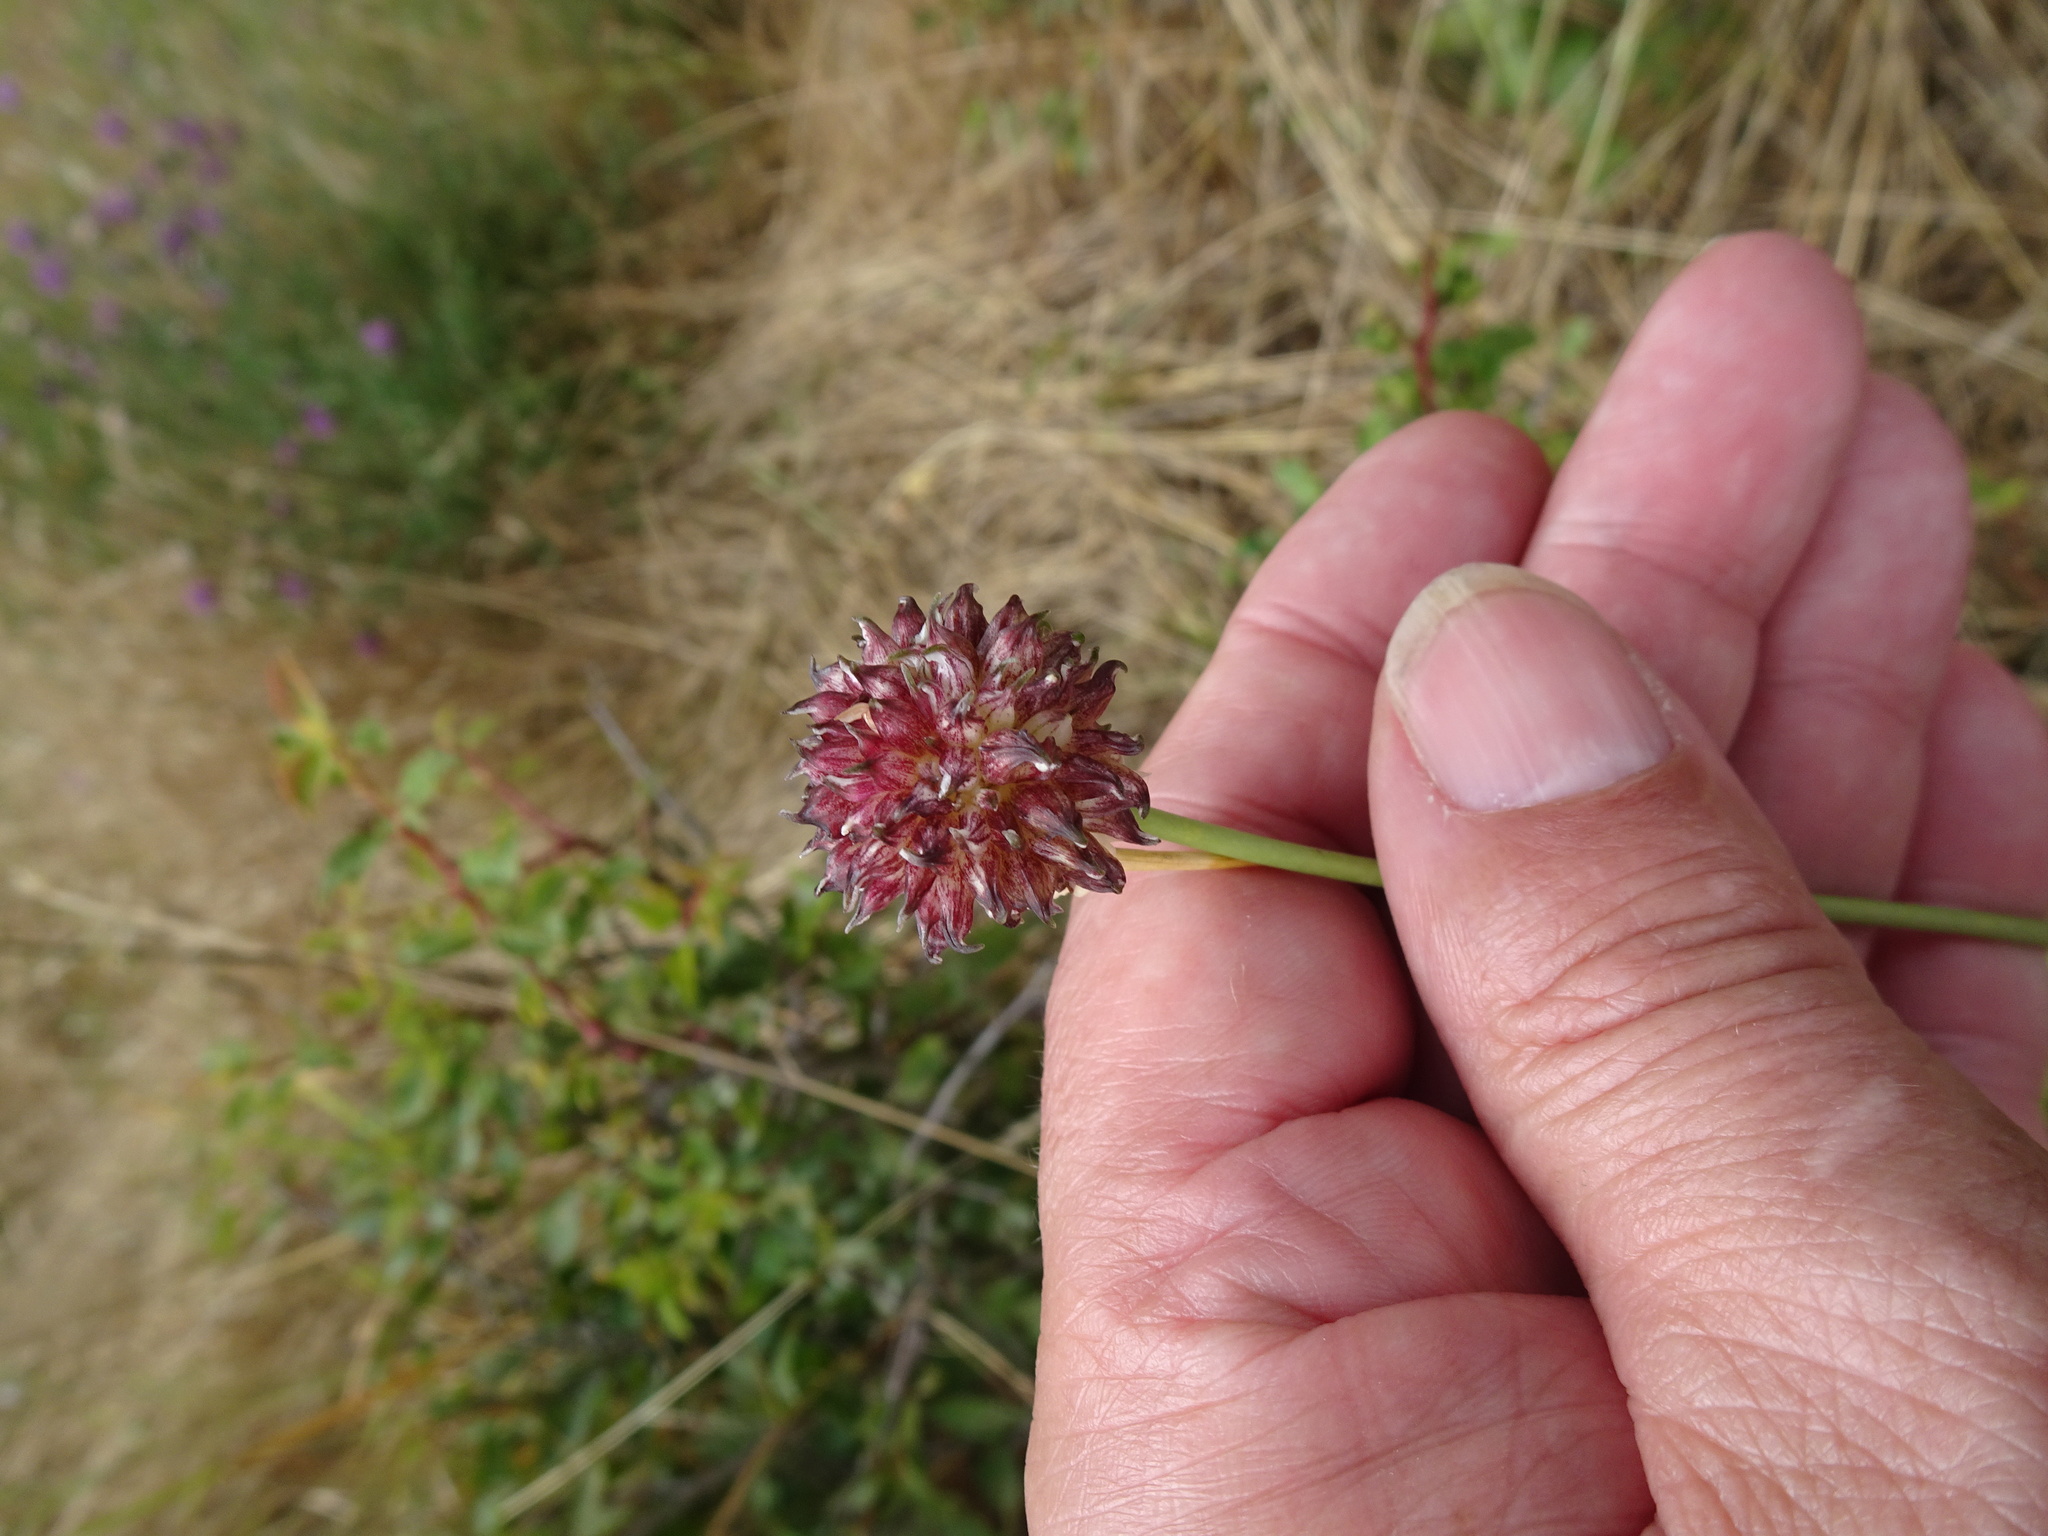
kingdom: Plantae
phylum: Tracheophyta
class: Liliopsida
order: Asparagales
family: Amaryllidaceae
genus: Allium
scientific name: Allium vineale
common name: Crow garlic
